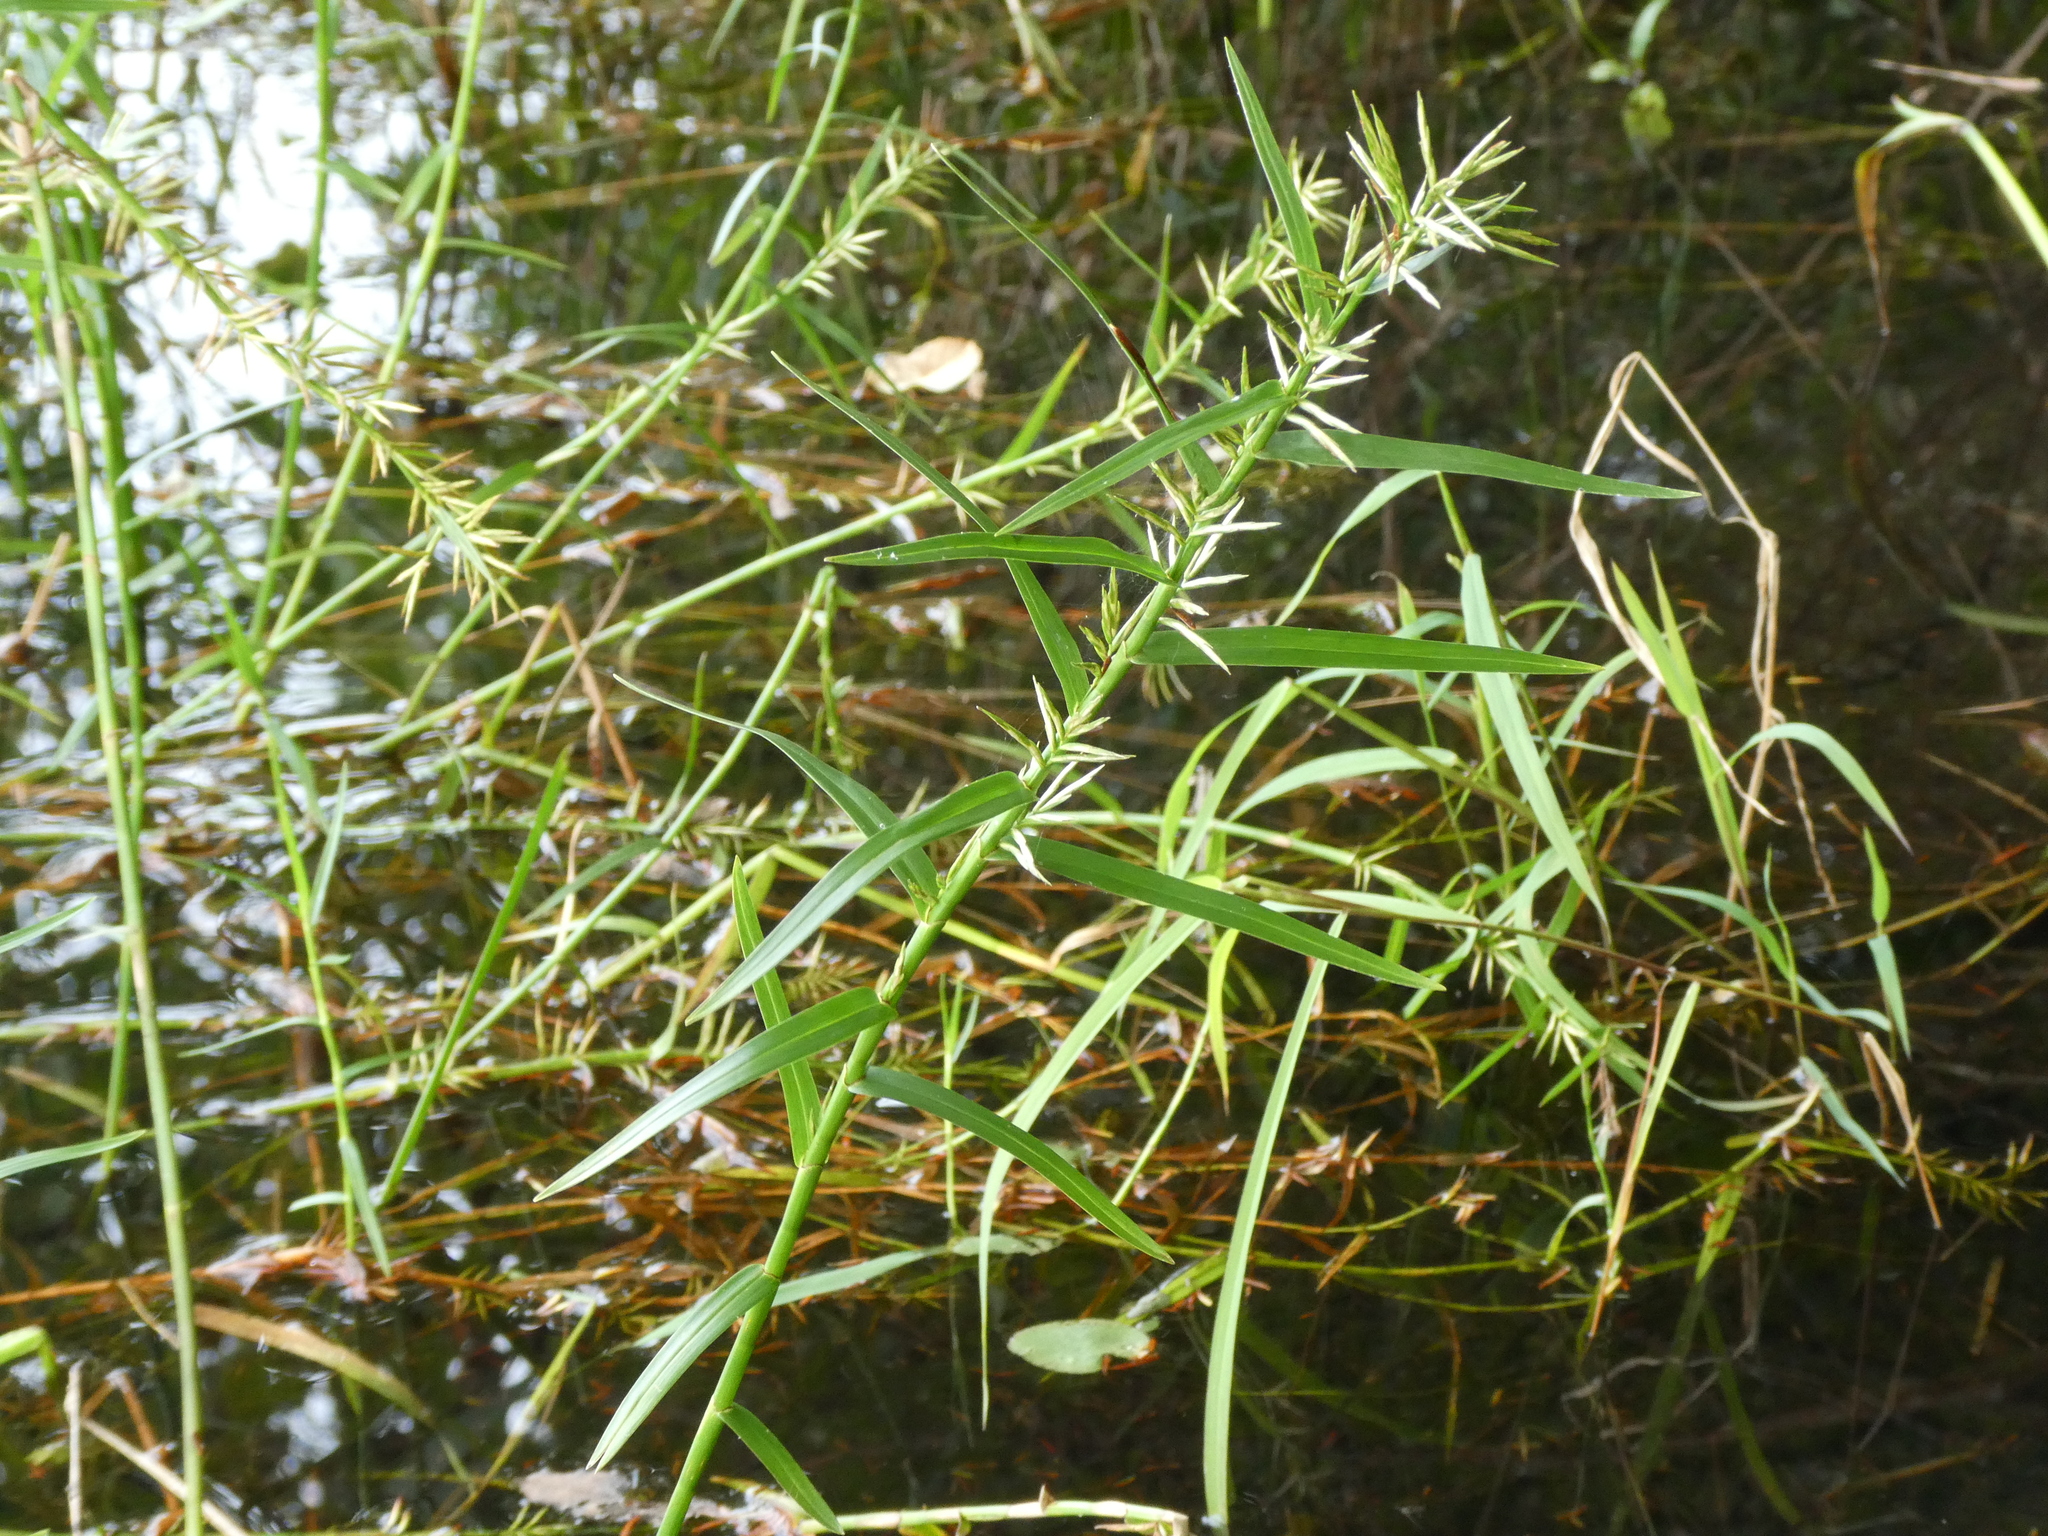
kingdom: Plantae
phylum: Tracheophyta
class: Liliopsida
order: Poales
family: Cyperaceae
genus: Dulichium
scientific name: Dulichium arundinaceum
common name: Three-way sedge
